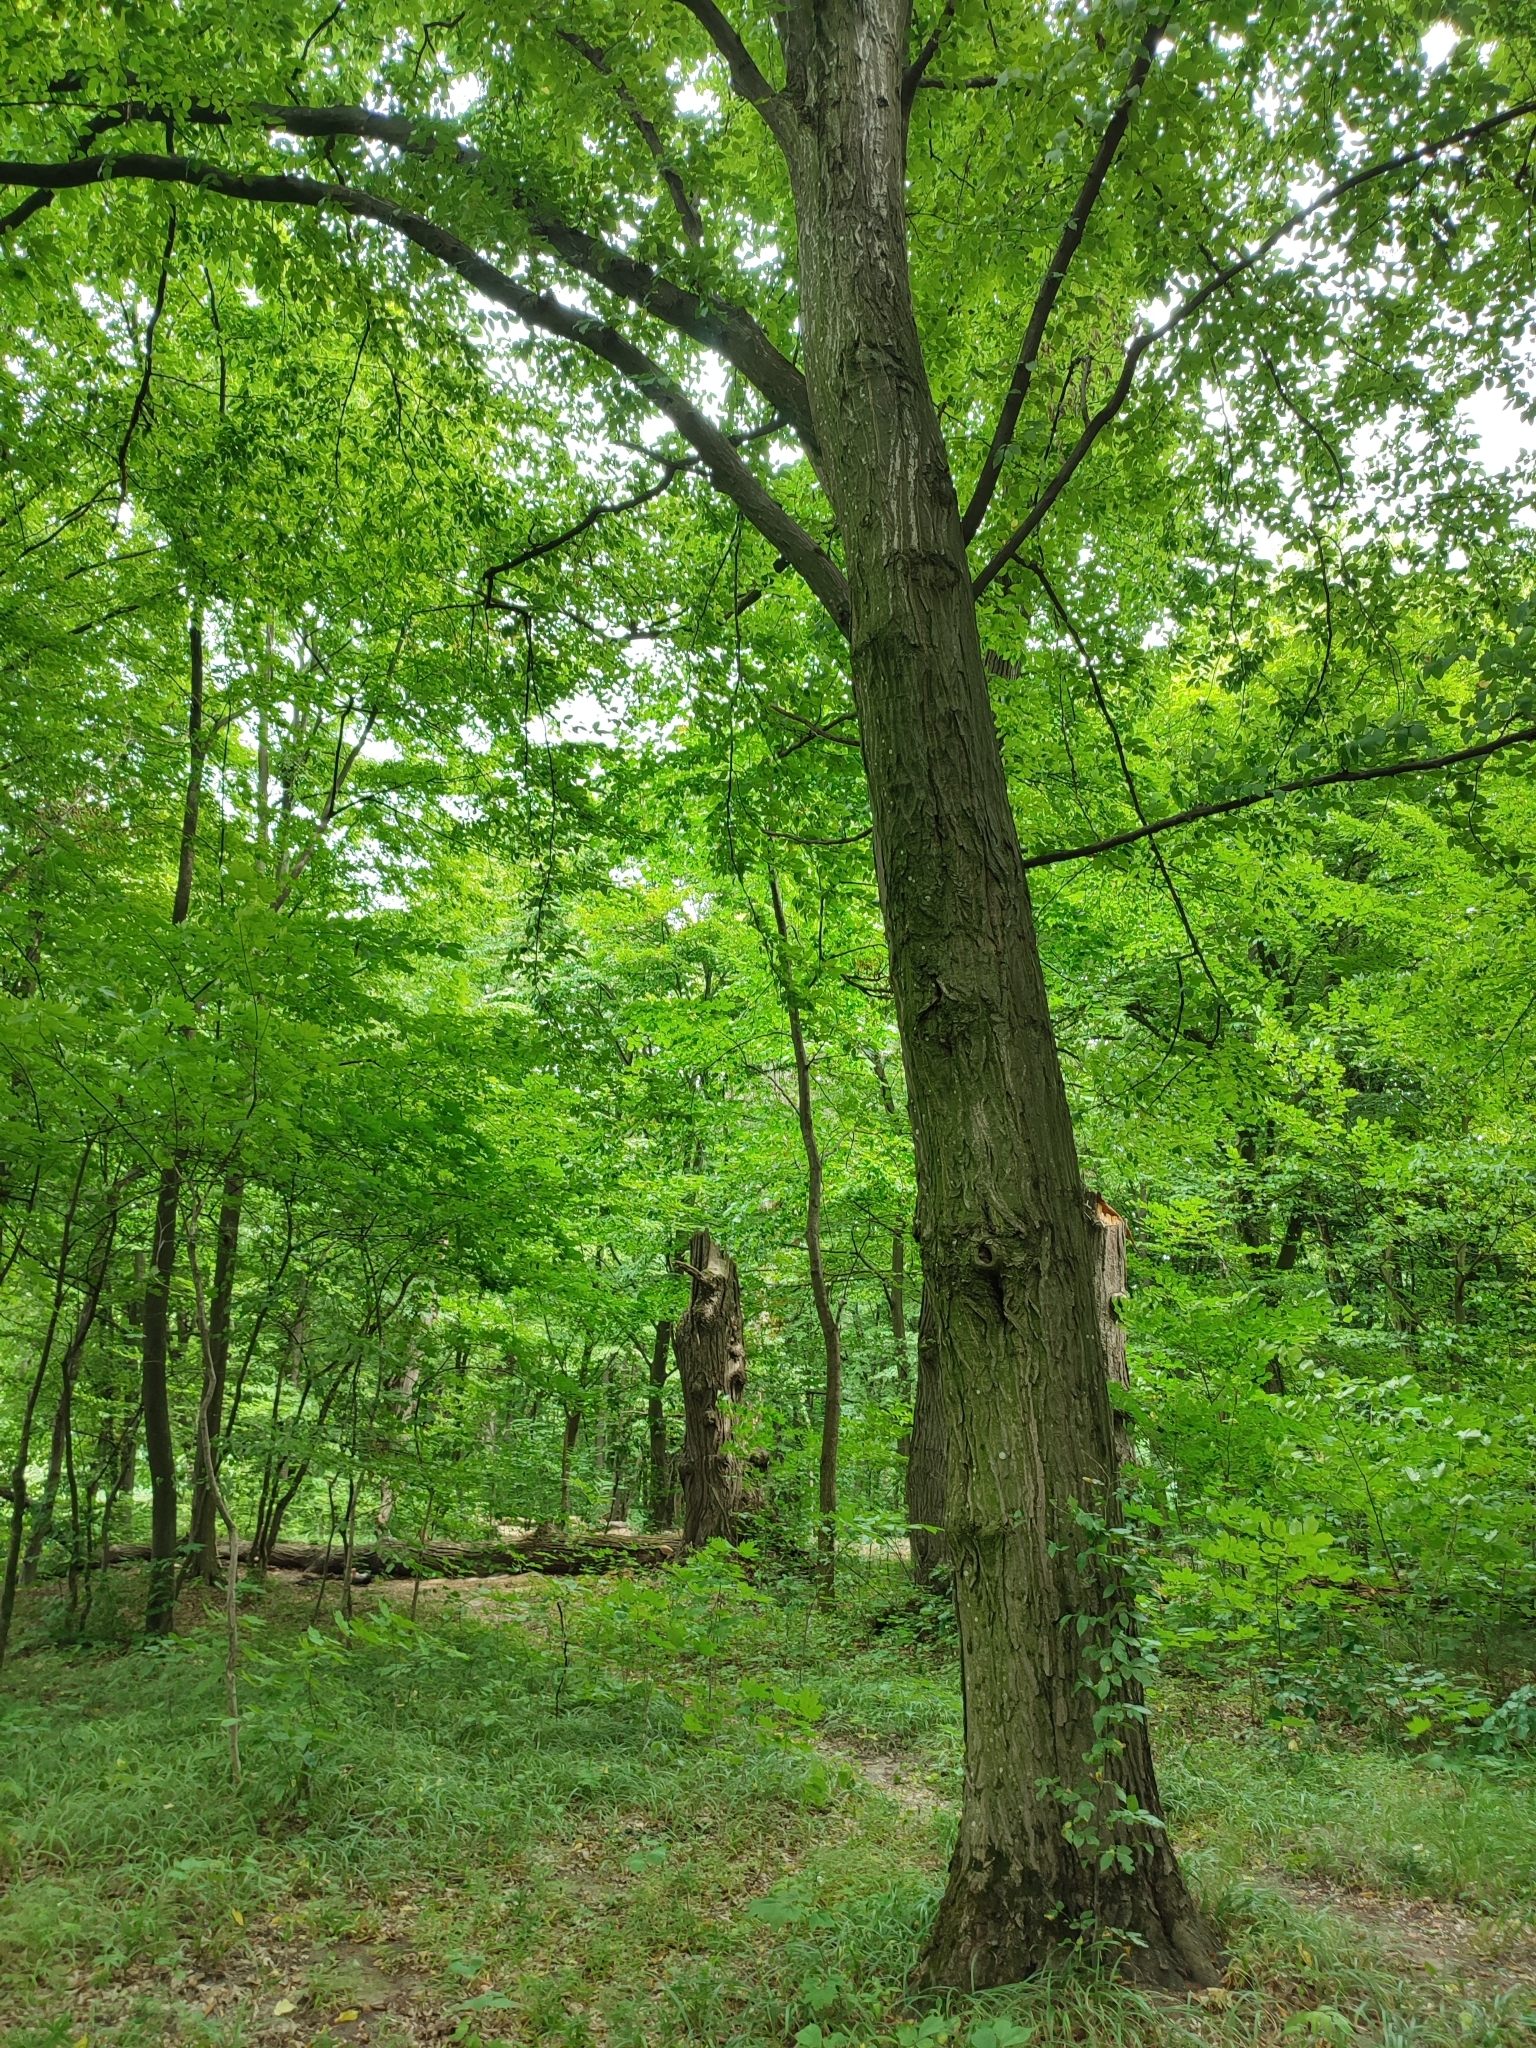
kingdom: Plantae
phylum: Tracheophyta
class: Magnoliopsida
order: Fagales
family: Betulaceae
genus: Carpinus
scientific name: Carpinus betulus
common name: Hornbeam
